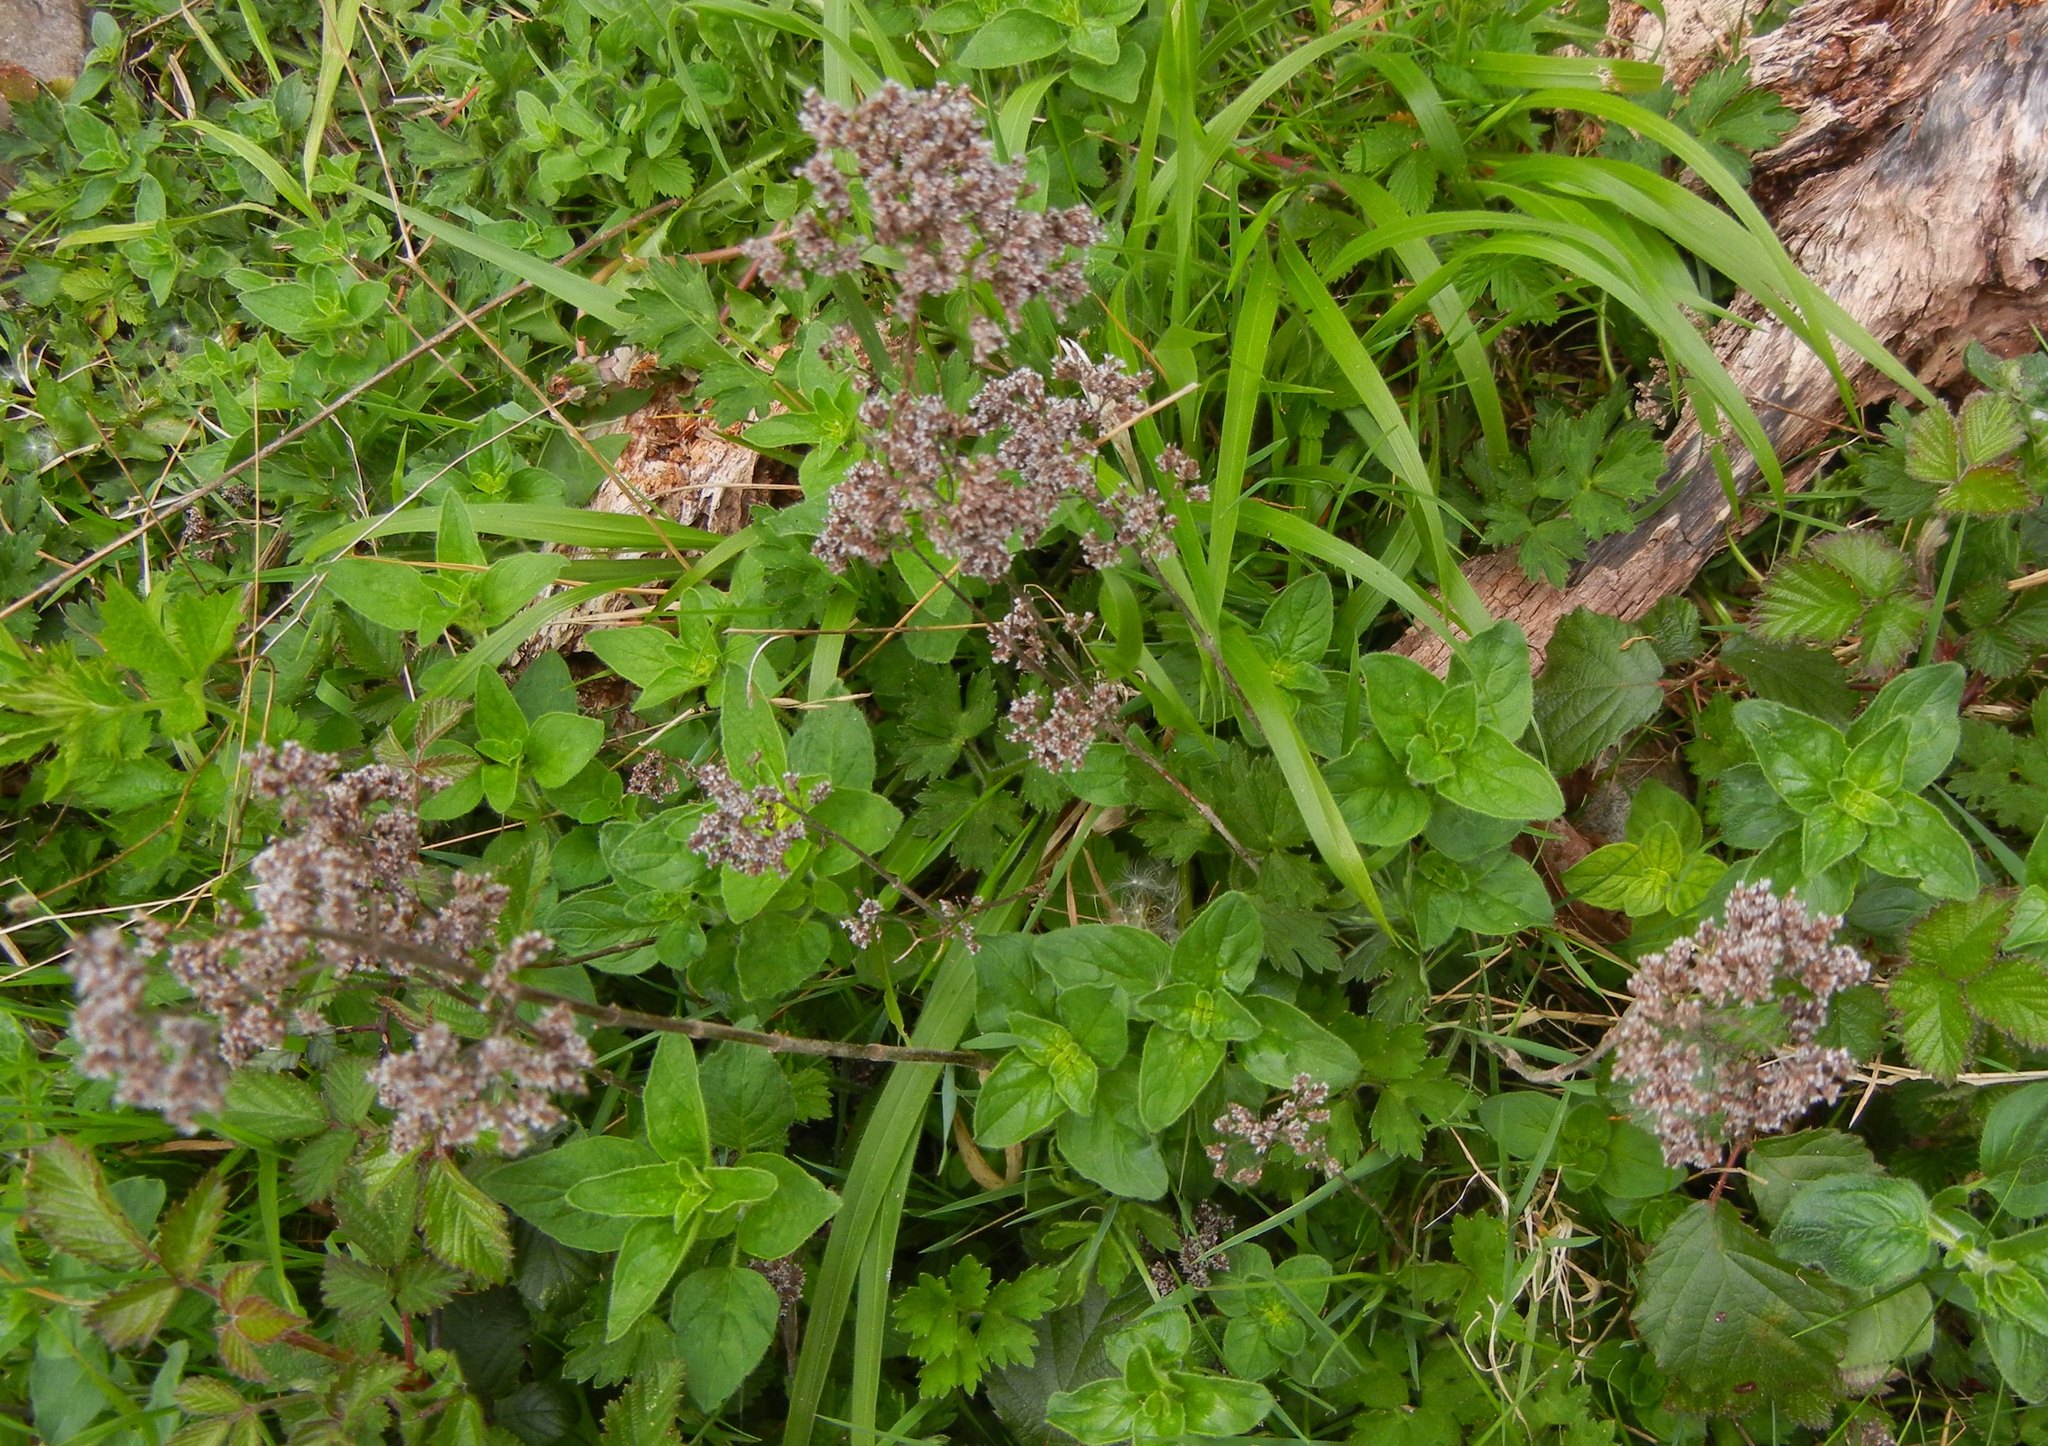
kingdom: Plantae
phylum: Tracheophyta
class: Magnoliopsida
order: Lamiales
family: Lamiaceae
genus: Origanum
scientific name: Origanum vulgare
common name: Wild marjoram
